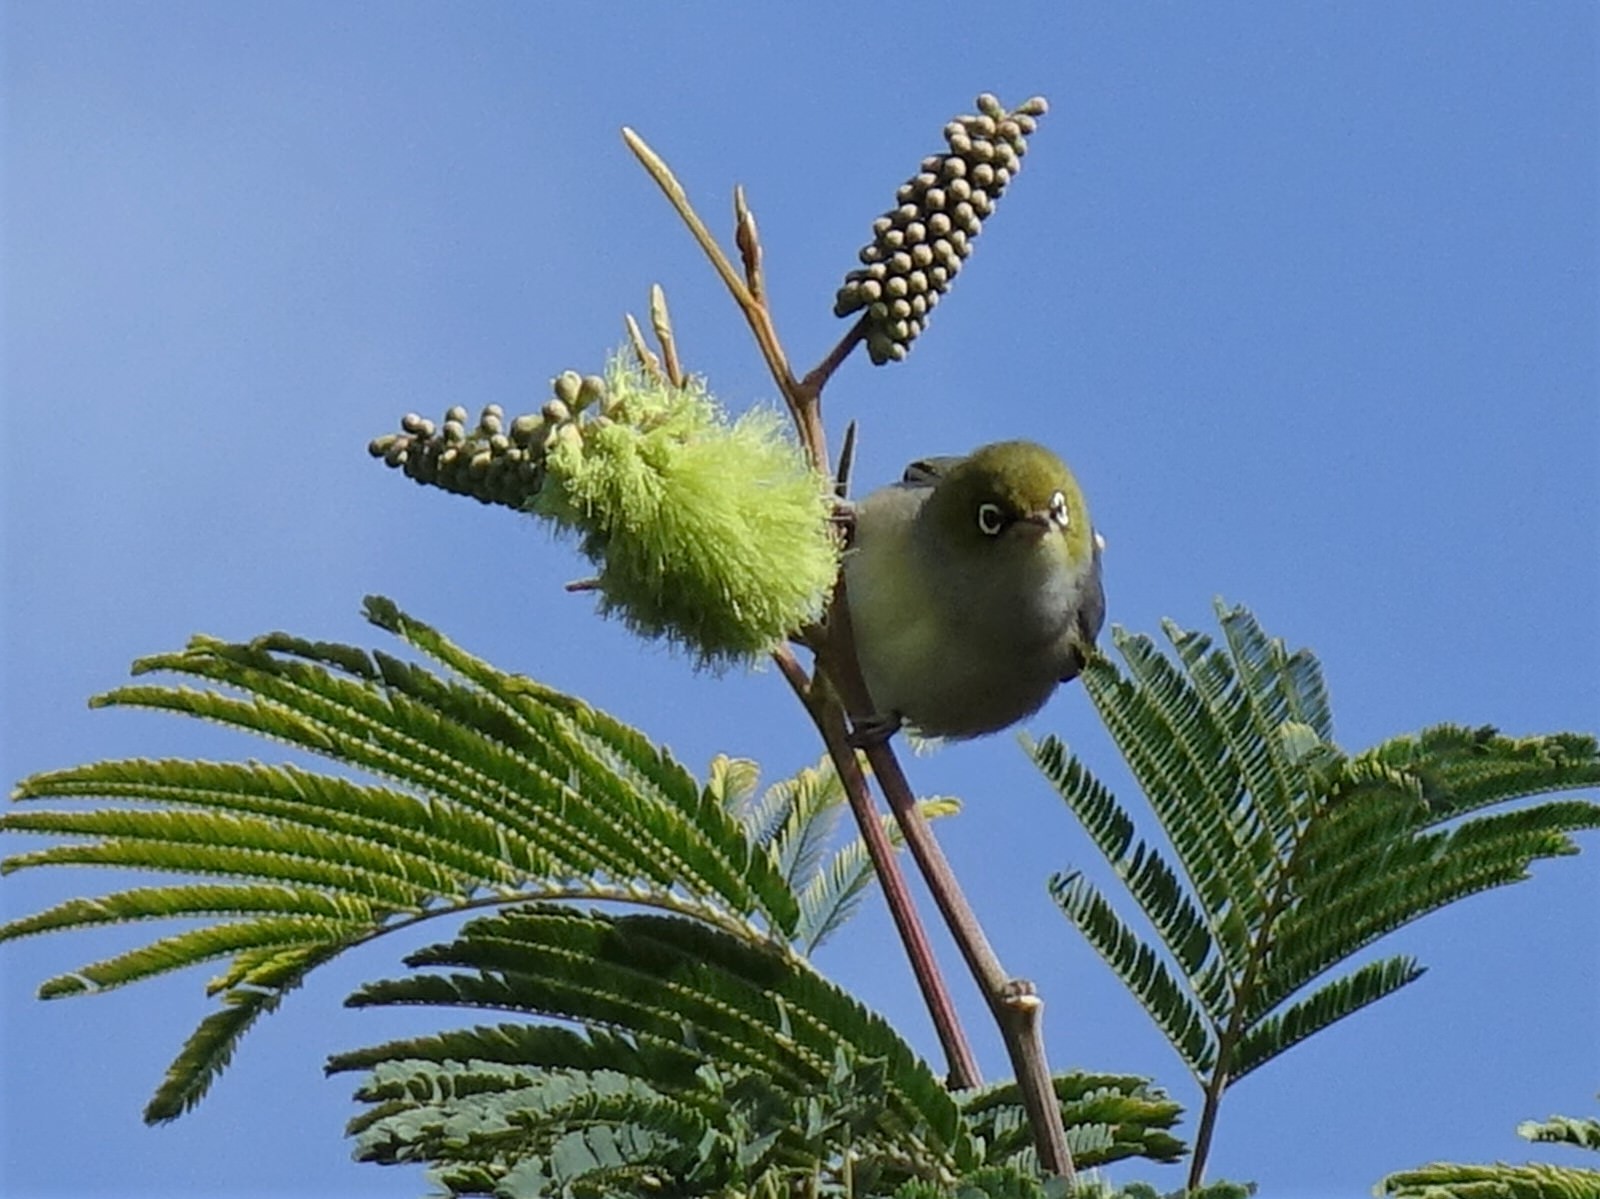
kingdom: Animalia
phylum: Chordata
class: Aves
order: Passeriformes
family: Zosteropidae
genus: Zosterops
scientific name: Zosterops lateralis
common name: Silvereye
